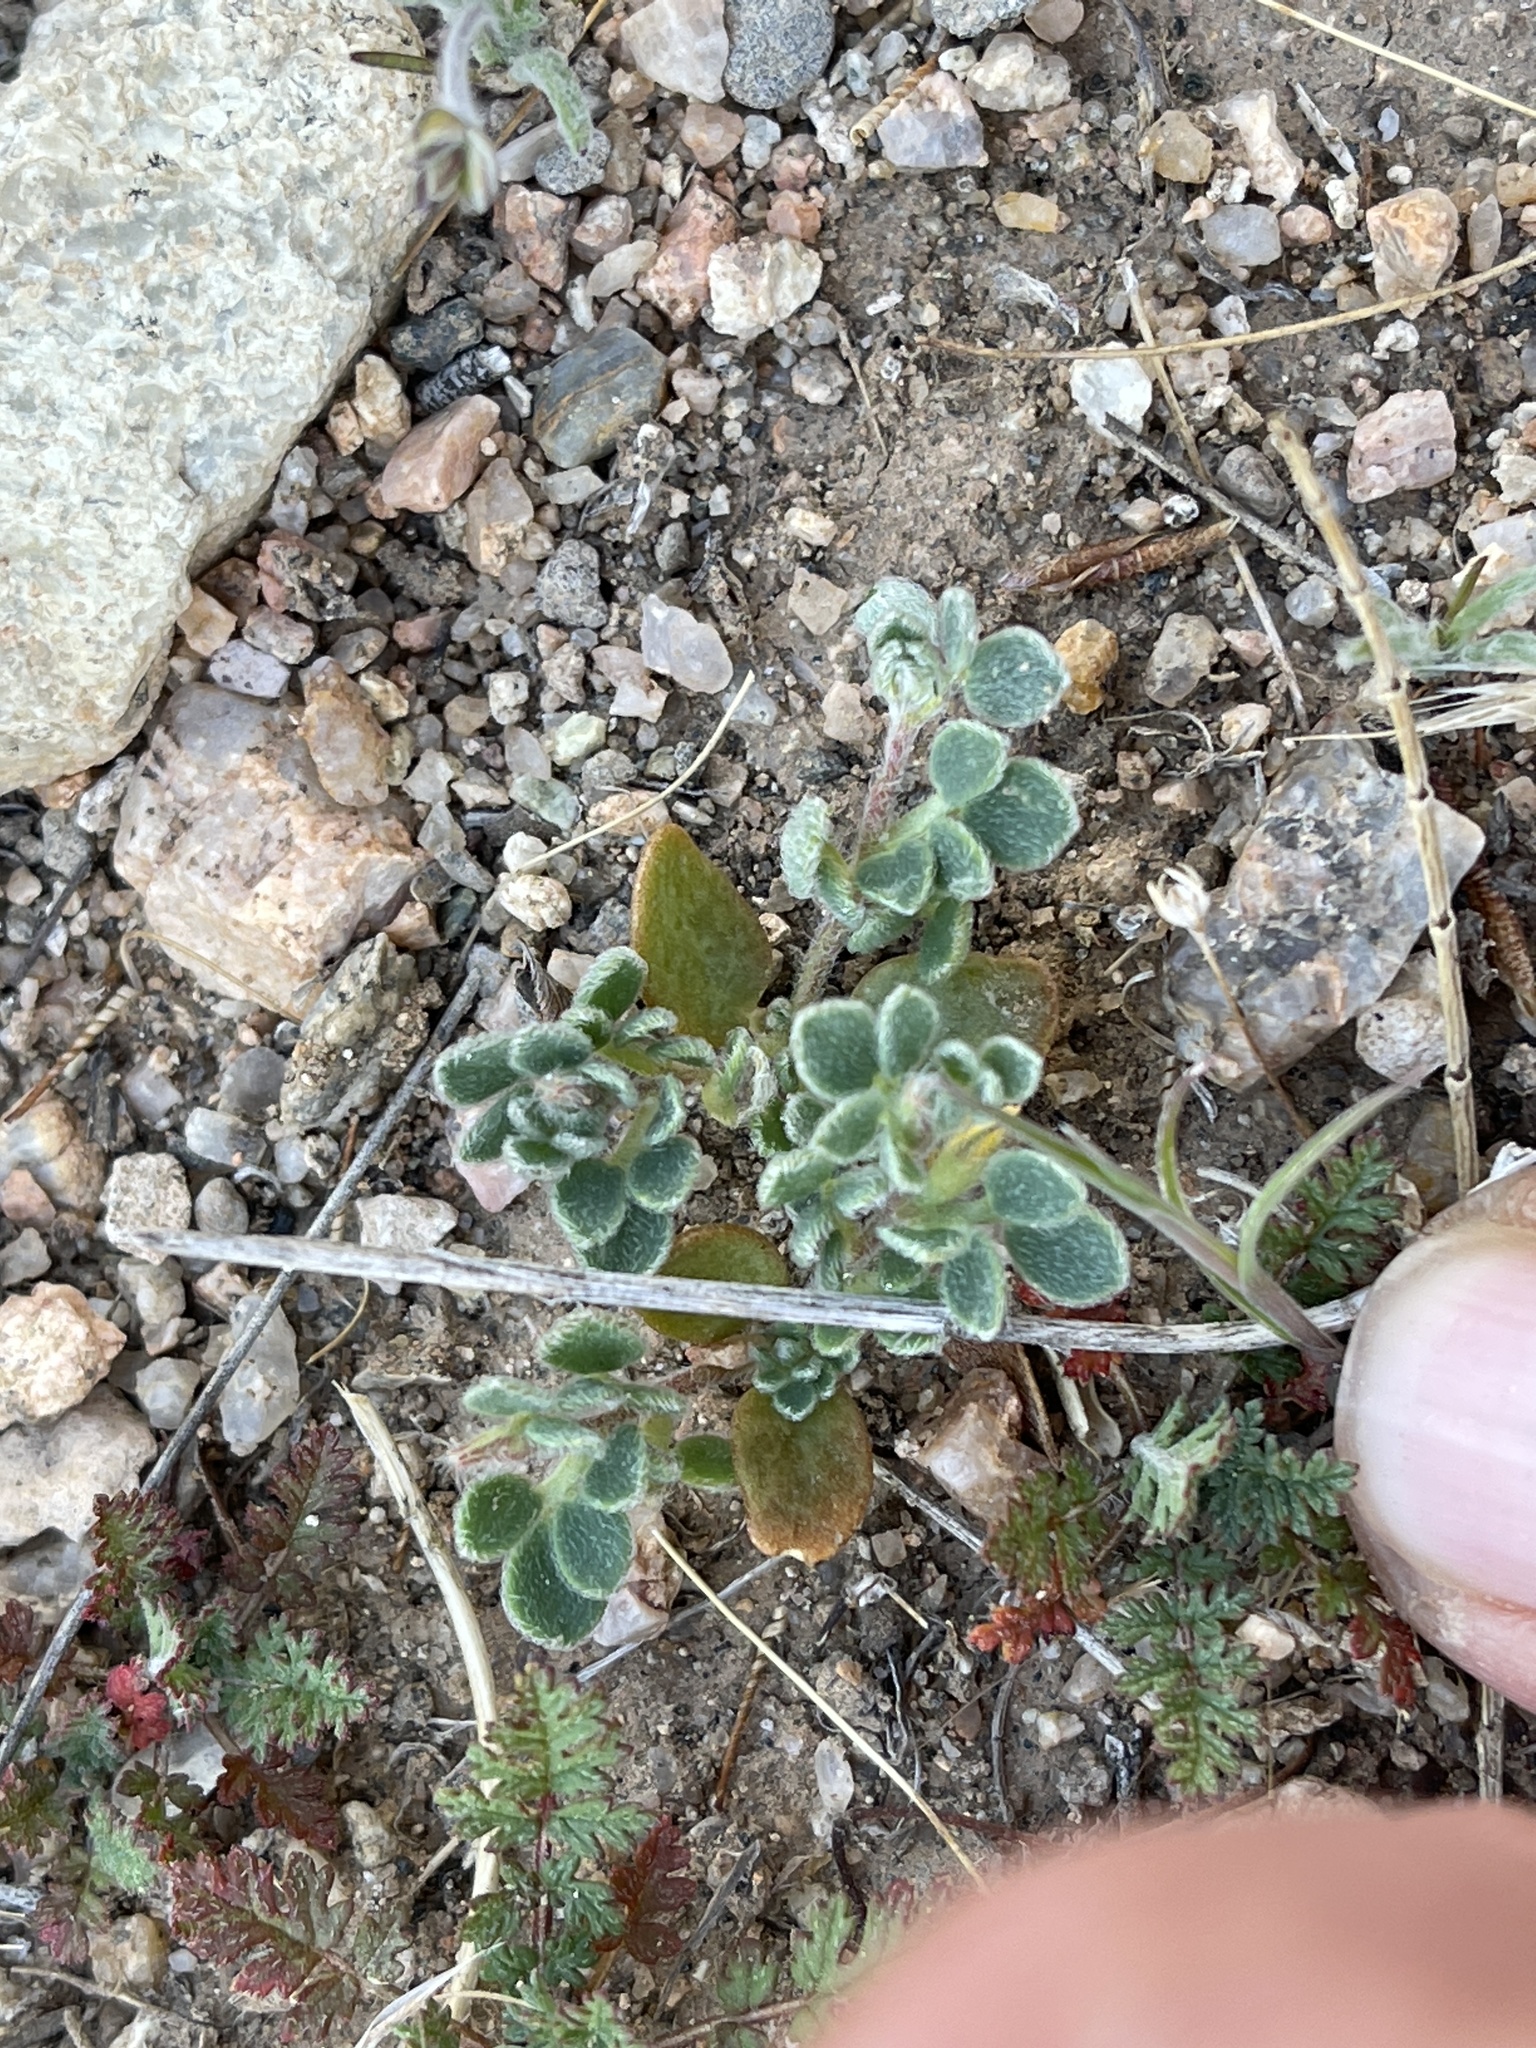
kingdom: Plantae
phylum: Tracheophyta
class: Magnoliopsida
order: Fabales
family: Fabaceae
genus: Acmispon
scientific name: Acmispon brachycarpus
